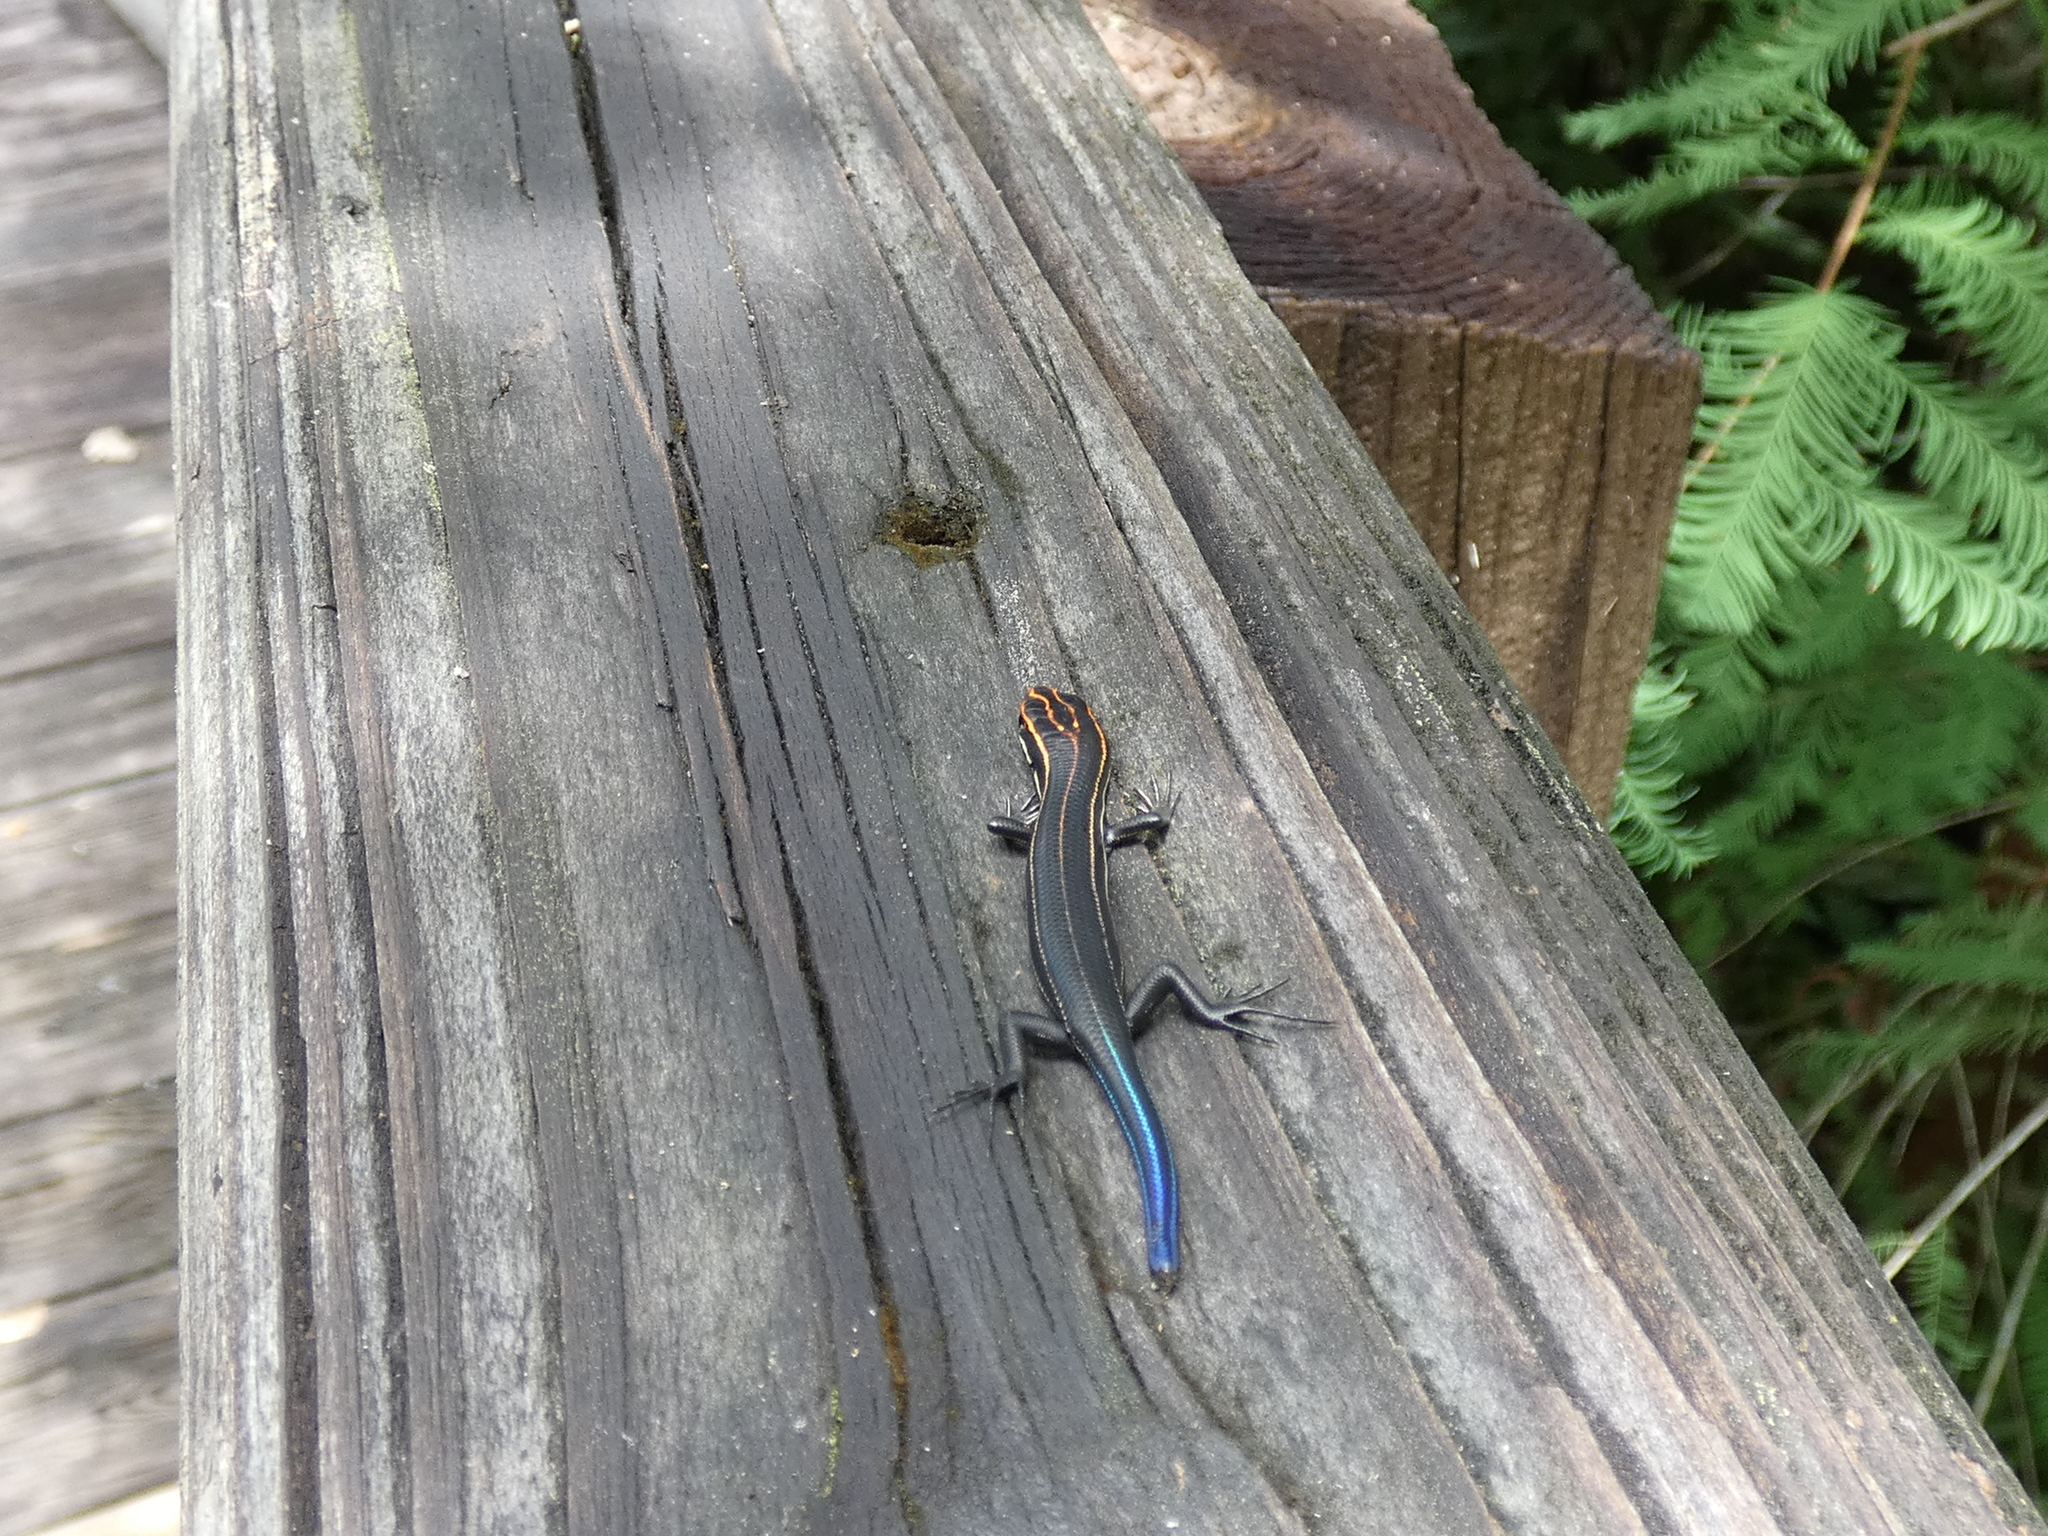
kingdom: Animalia
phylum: Chordata
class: Squamata
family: Scincidae
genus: Plestiodon
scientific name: Plestiodon inexpectatus
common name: Southeastern five-lined skink
